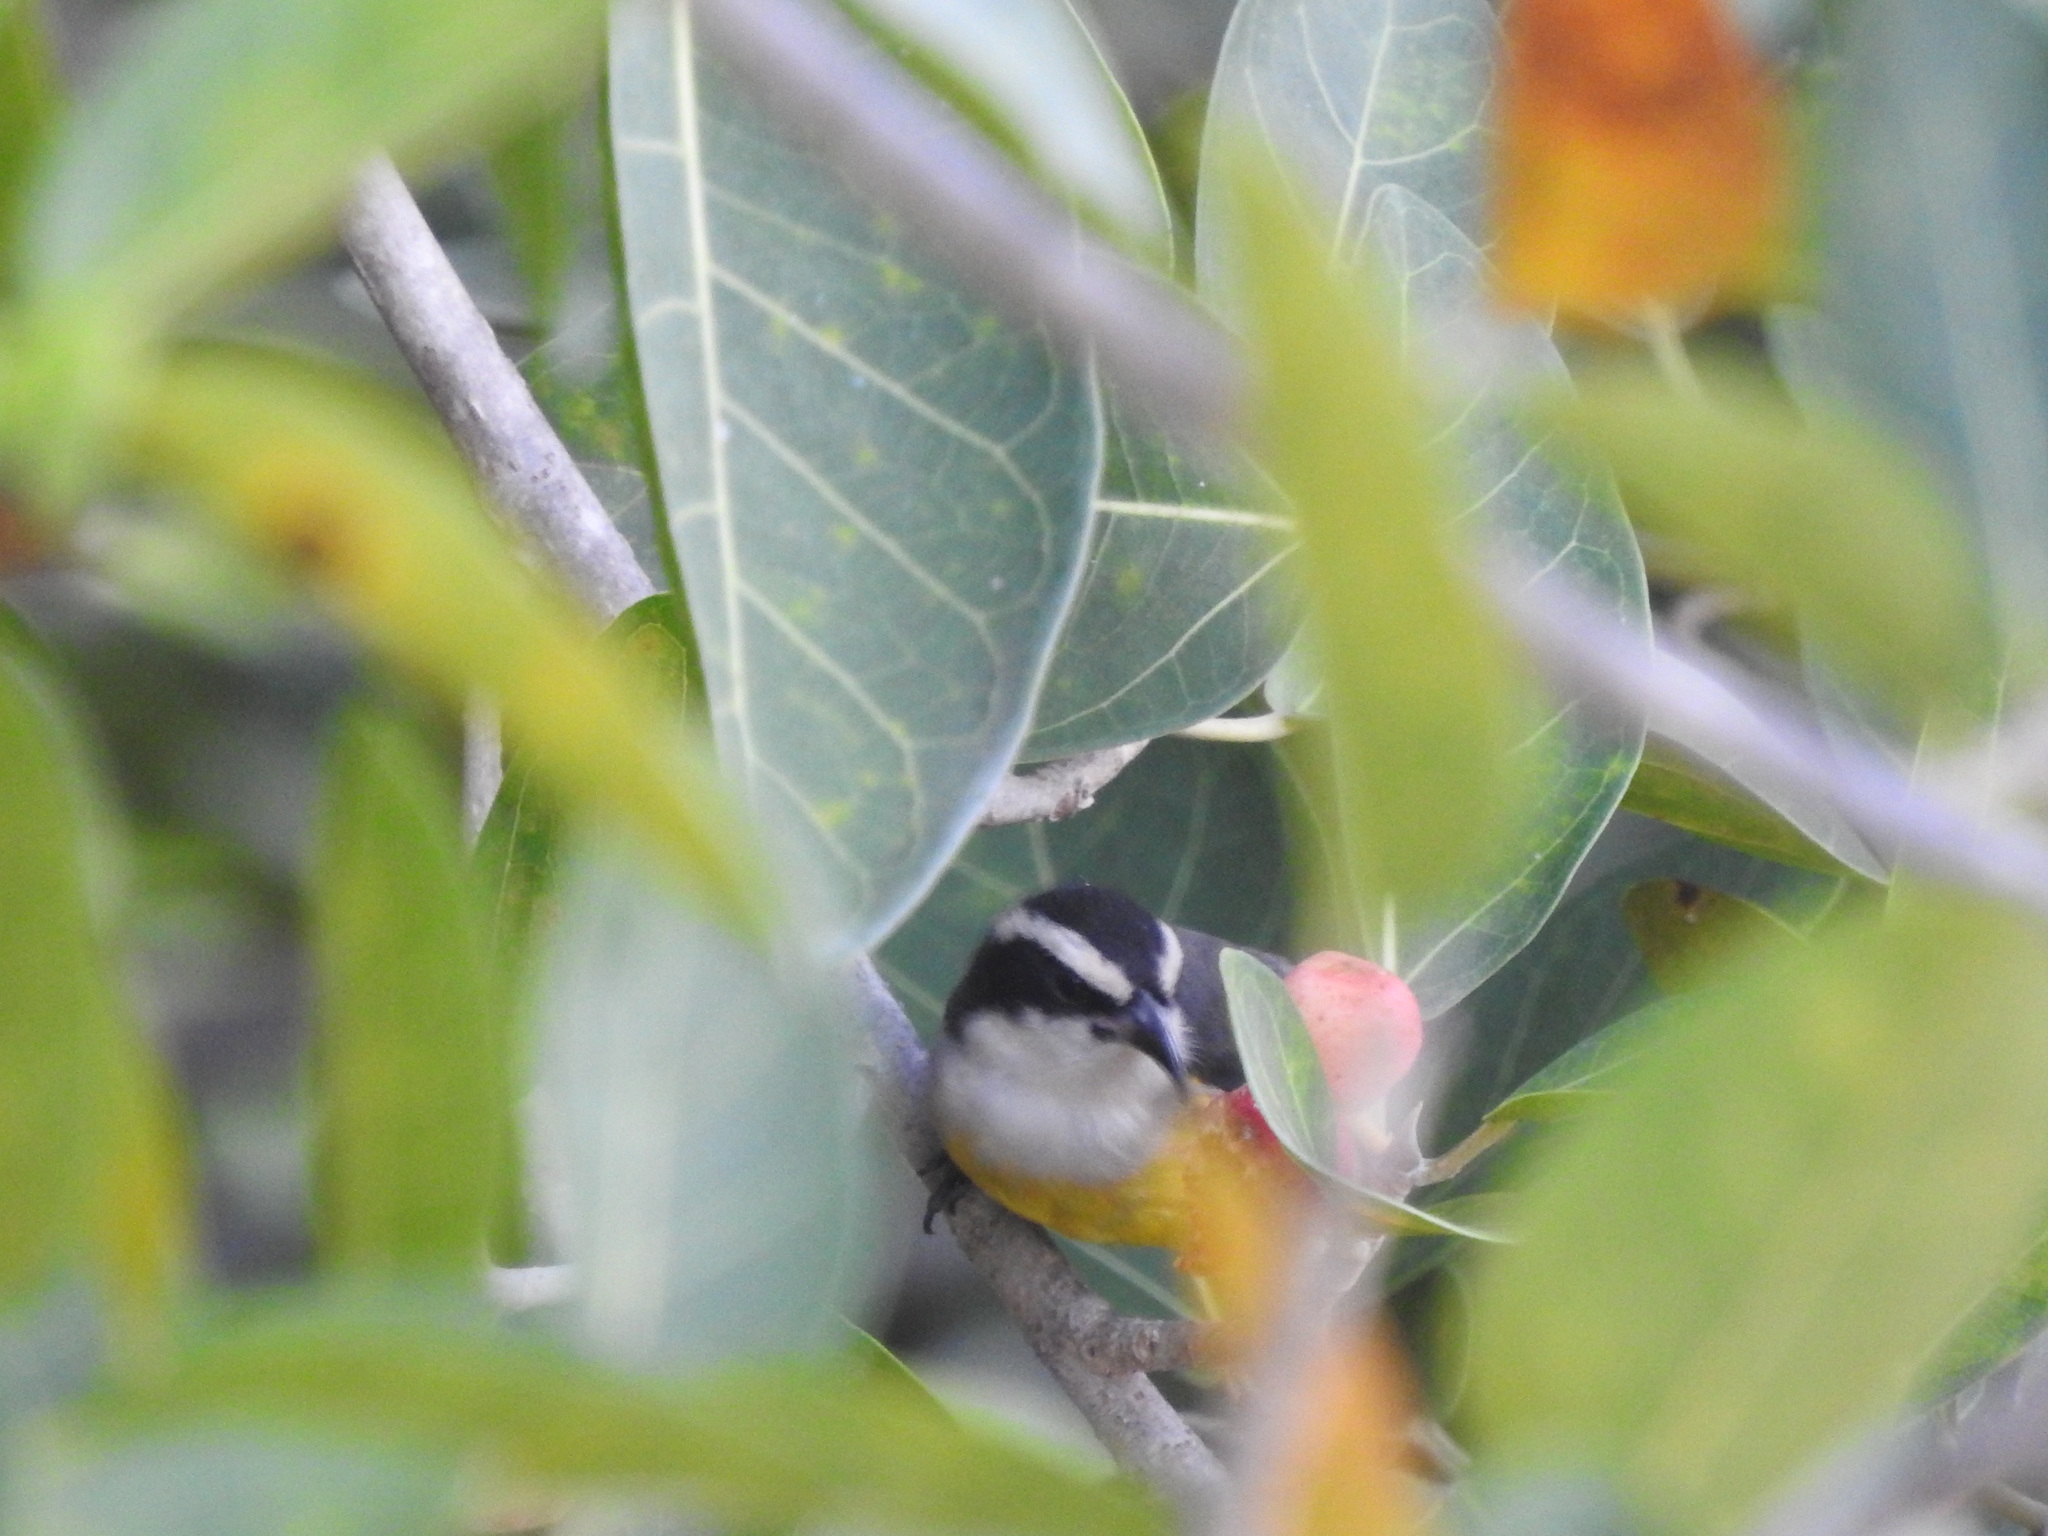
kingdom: Animalia
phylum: Chordata
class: Aves
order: Passeriformes
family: Thraupidae
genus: Coereba
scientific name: Coereba flaveola
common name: Bananaquit
